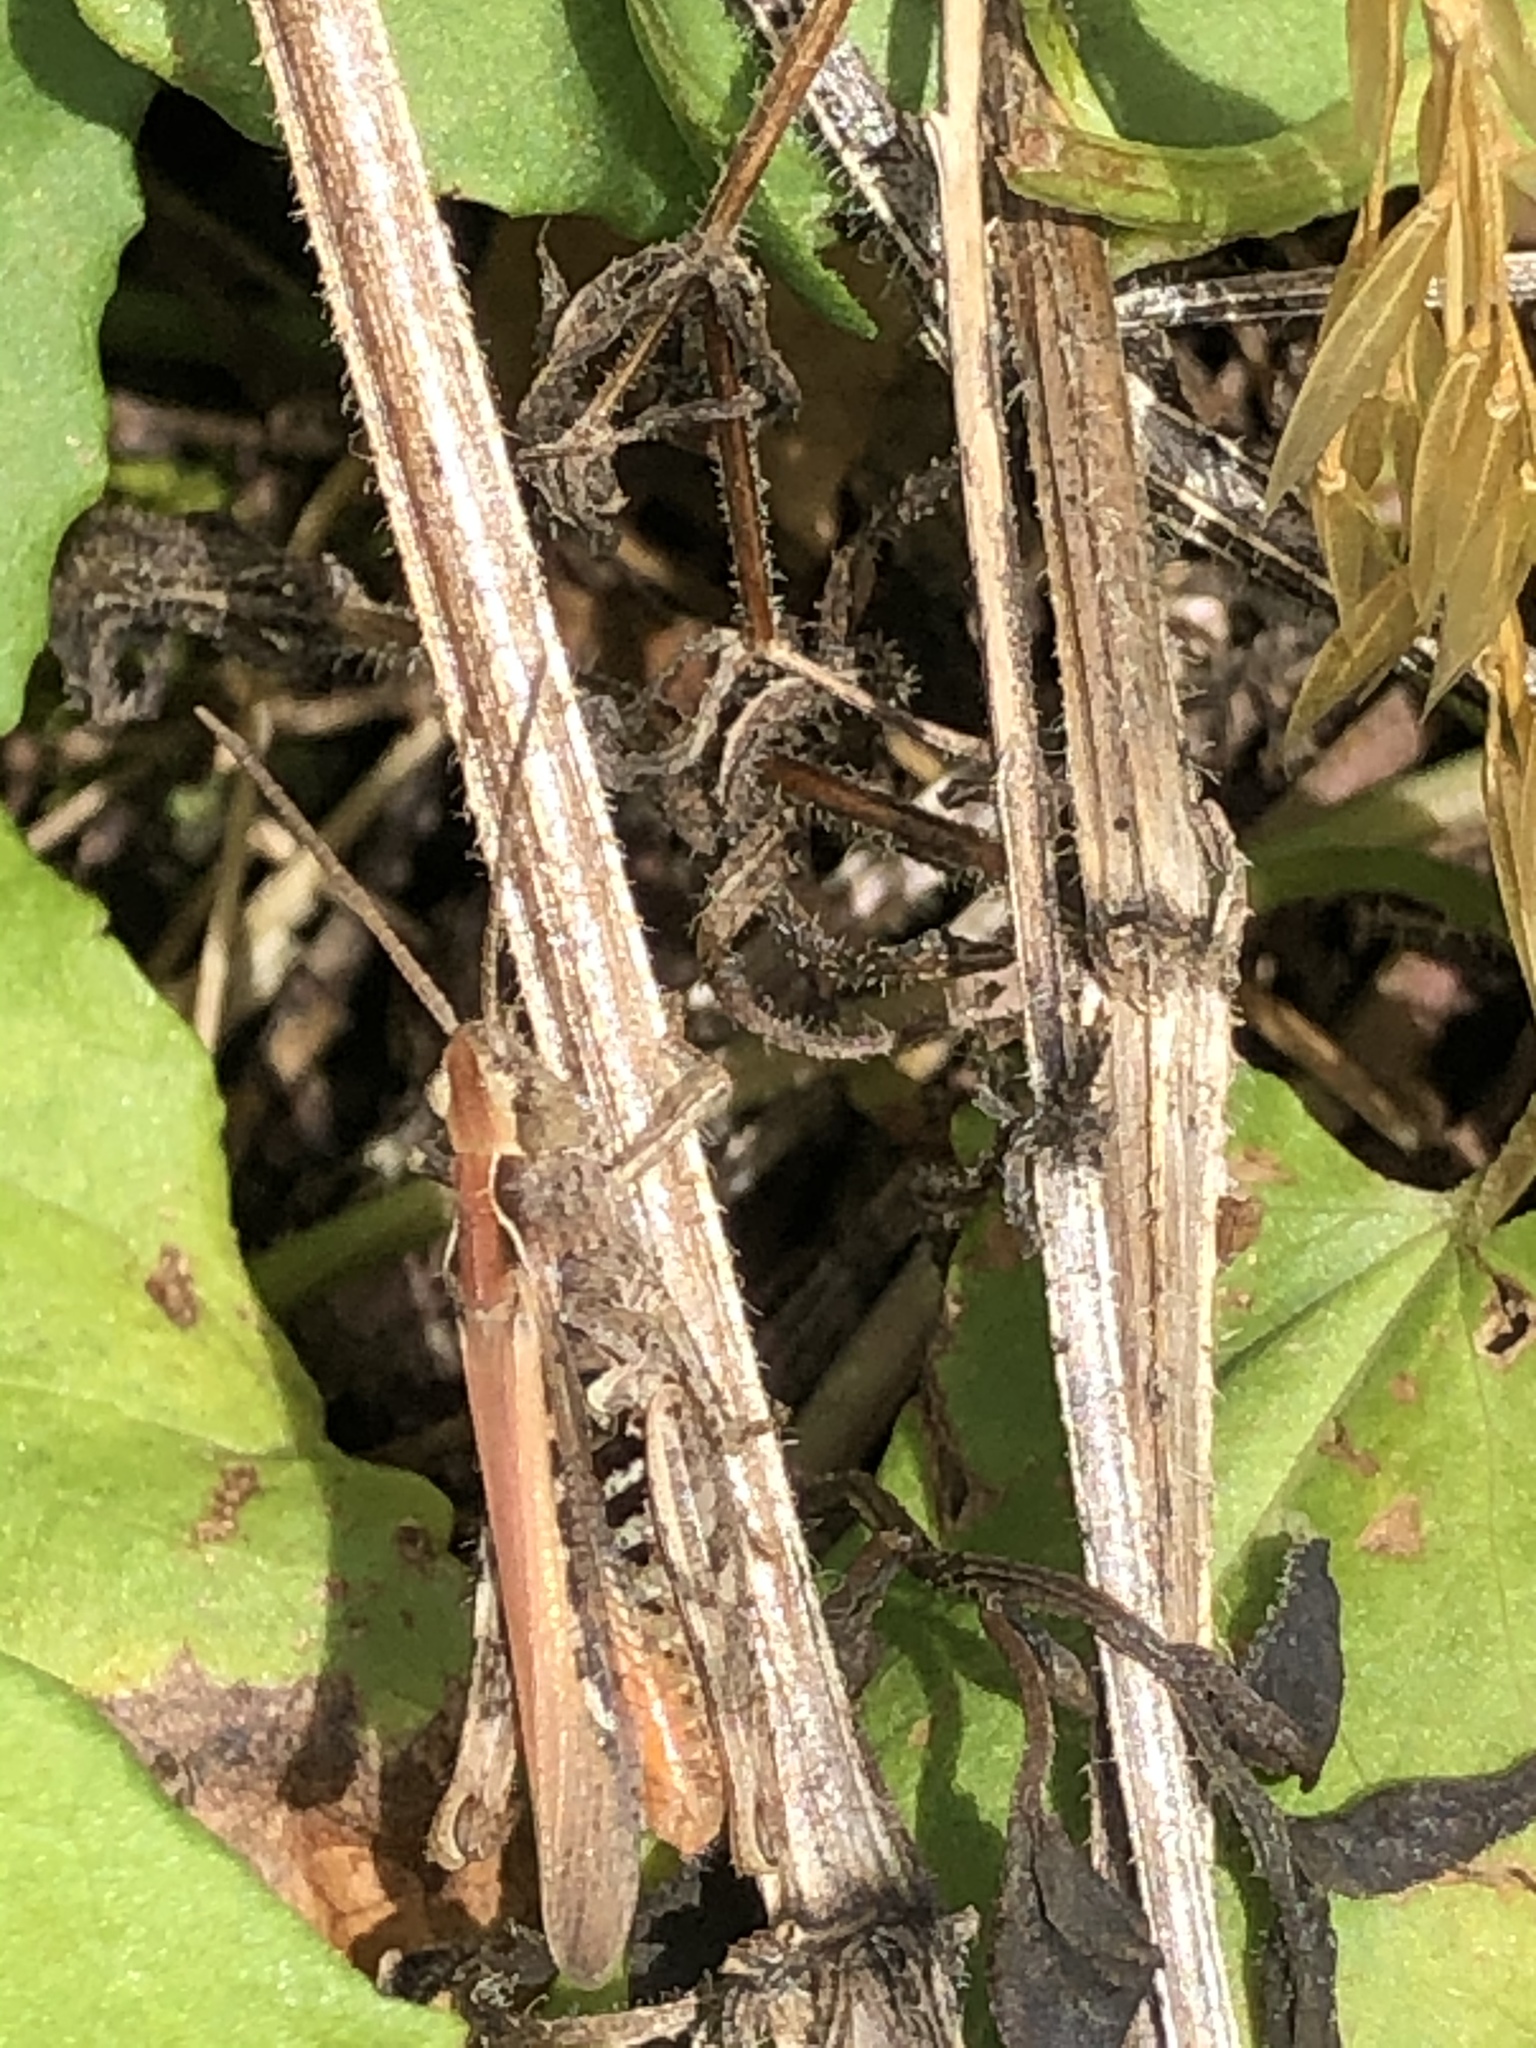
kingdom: Animalia
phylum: Arthropoda
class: Insecta
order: Orthoptera
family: Acrididae
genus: Chorthippus
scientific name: Chorthippus brunneus
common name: Field grasshopper
